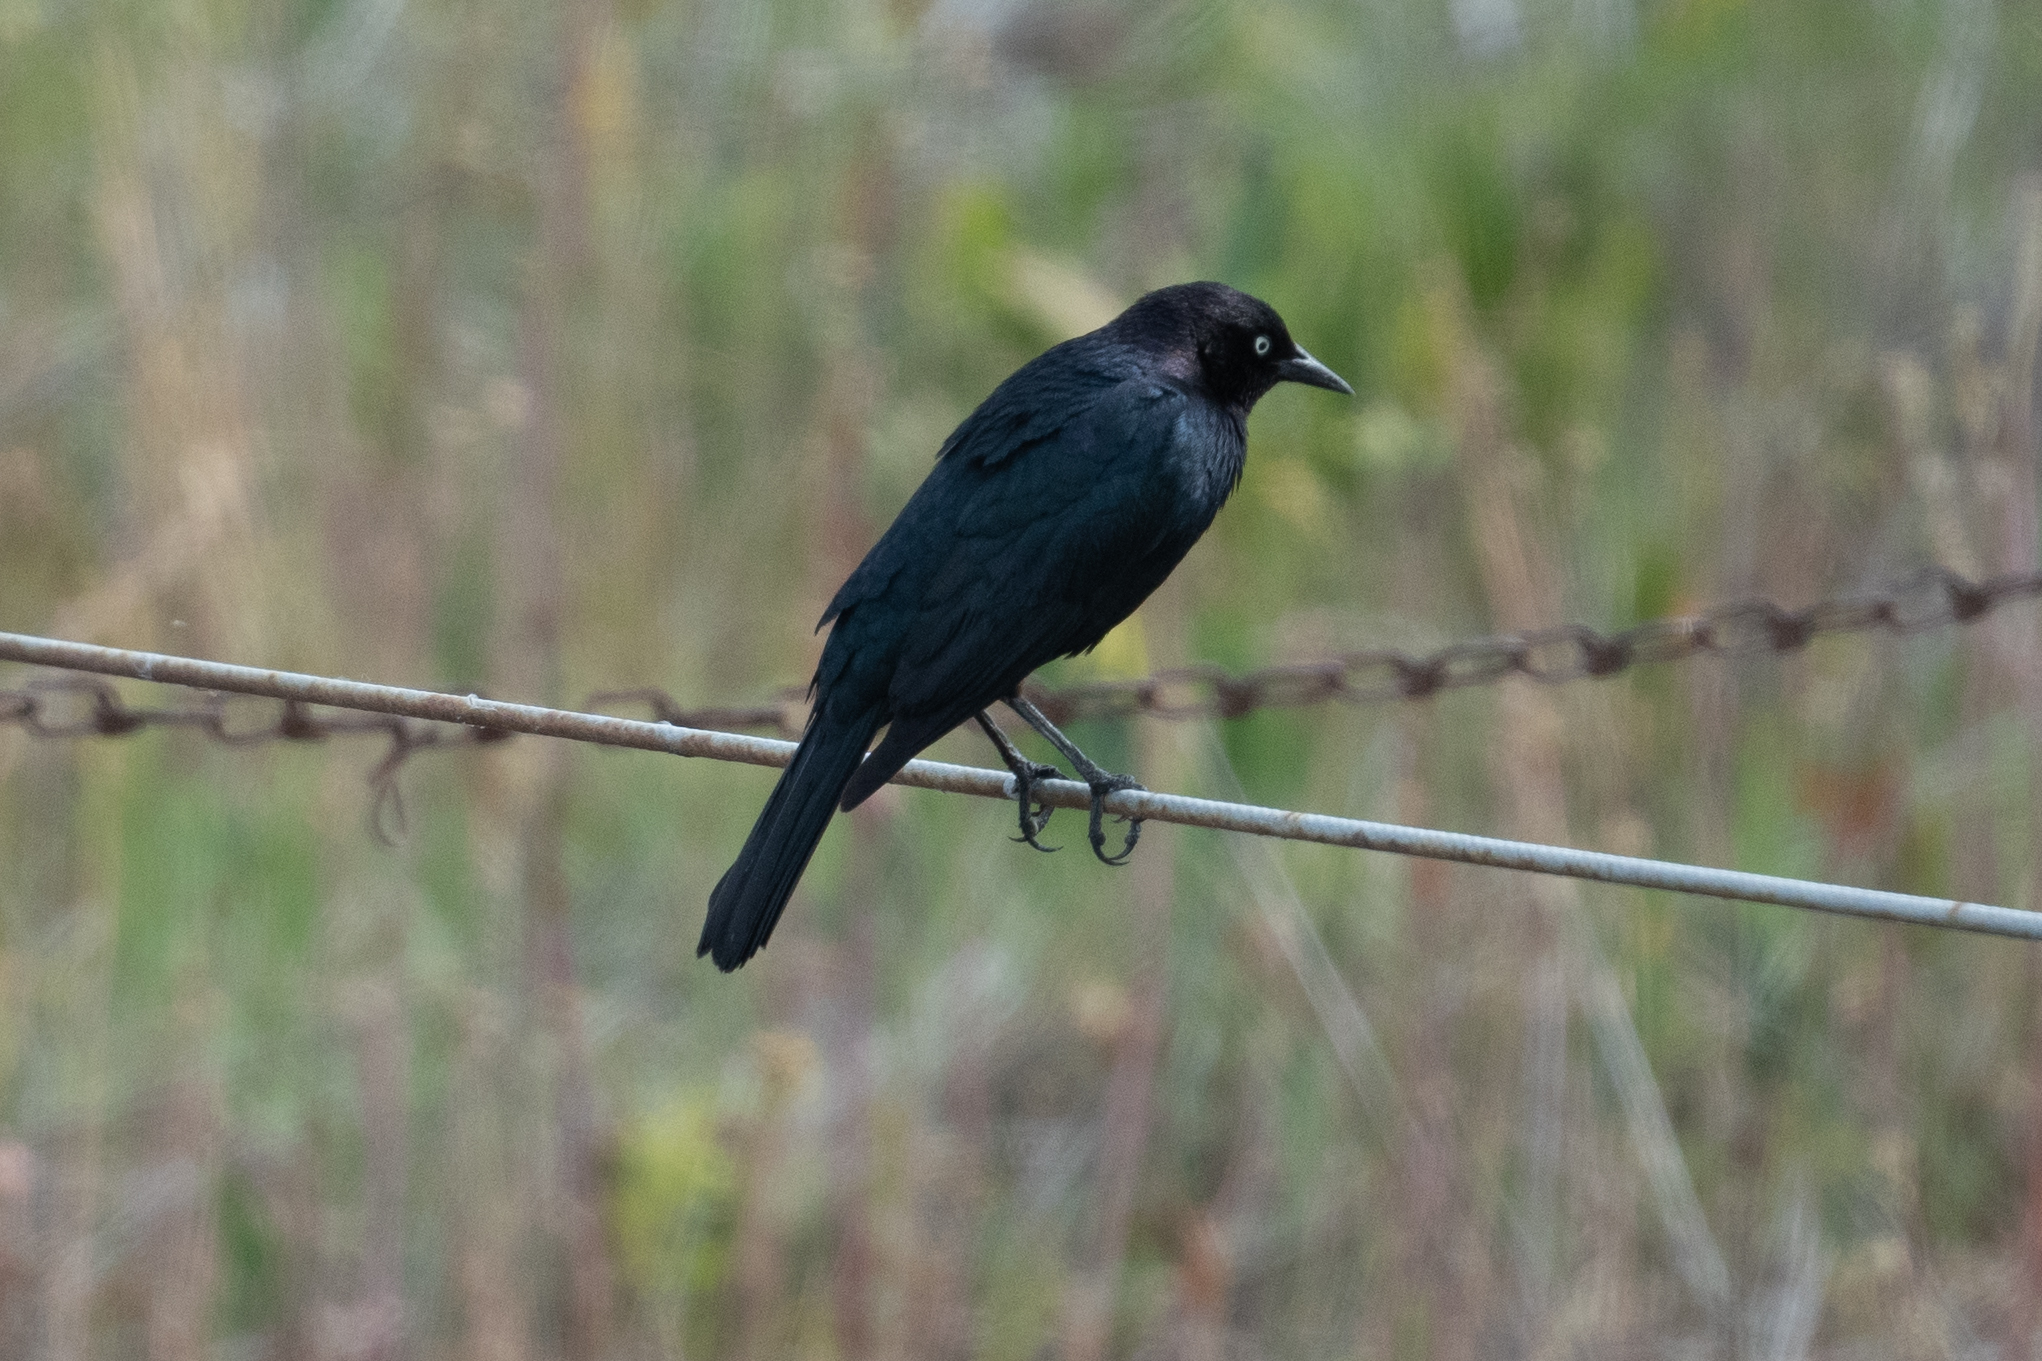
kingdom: Animalia
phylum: Chordata
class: Aves
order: Passeriformes
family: Icteridae
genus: Euphagus
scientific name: Euphagus cyanocephalus
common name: Brewer's blackbird
